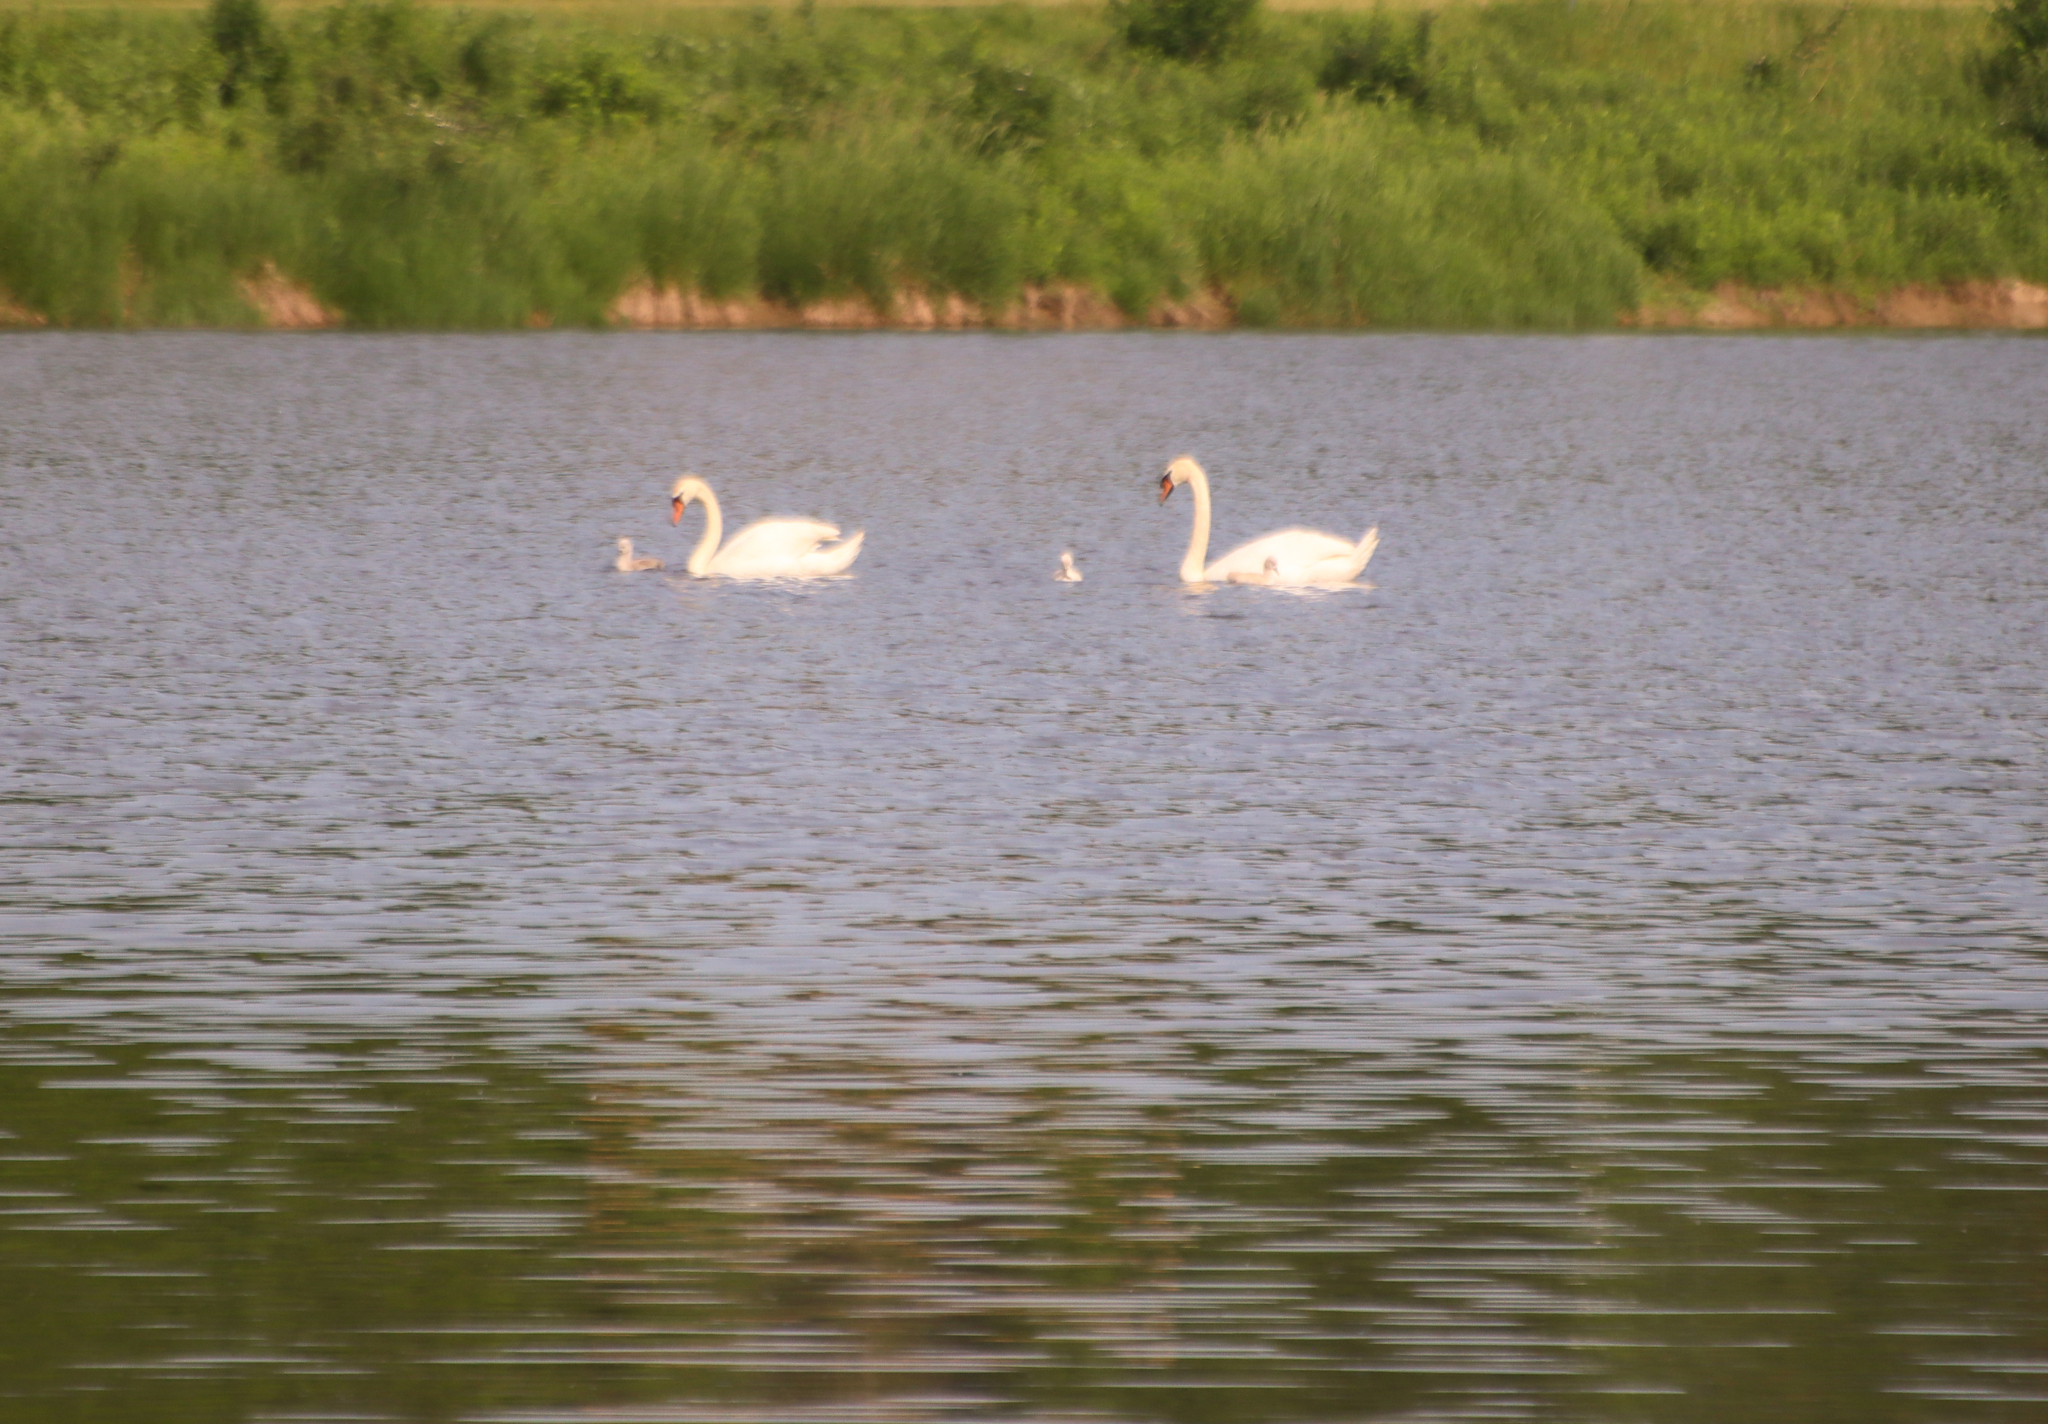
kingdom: Animalia
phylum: Chordata
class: Aves
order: Anseriformes
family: Anatidae
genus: Cygnus
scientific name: Cygnus olor
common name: Mute swan
